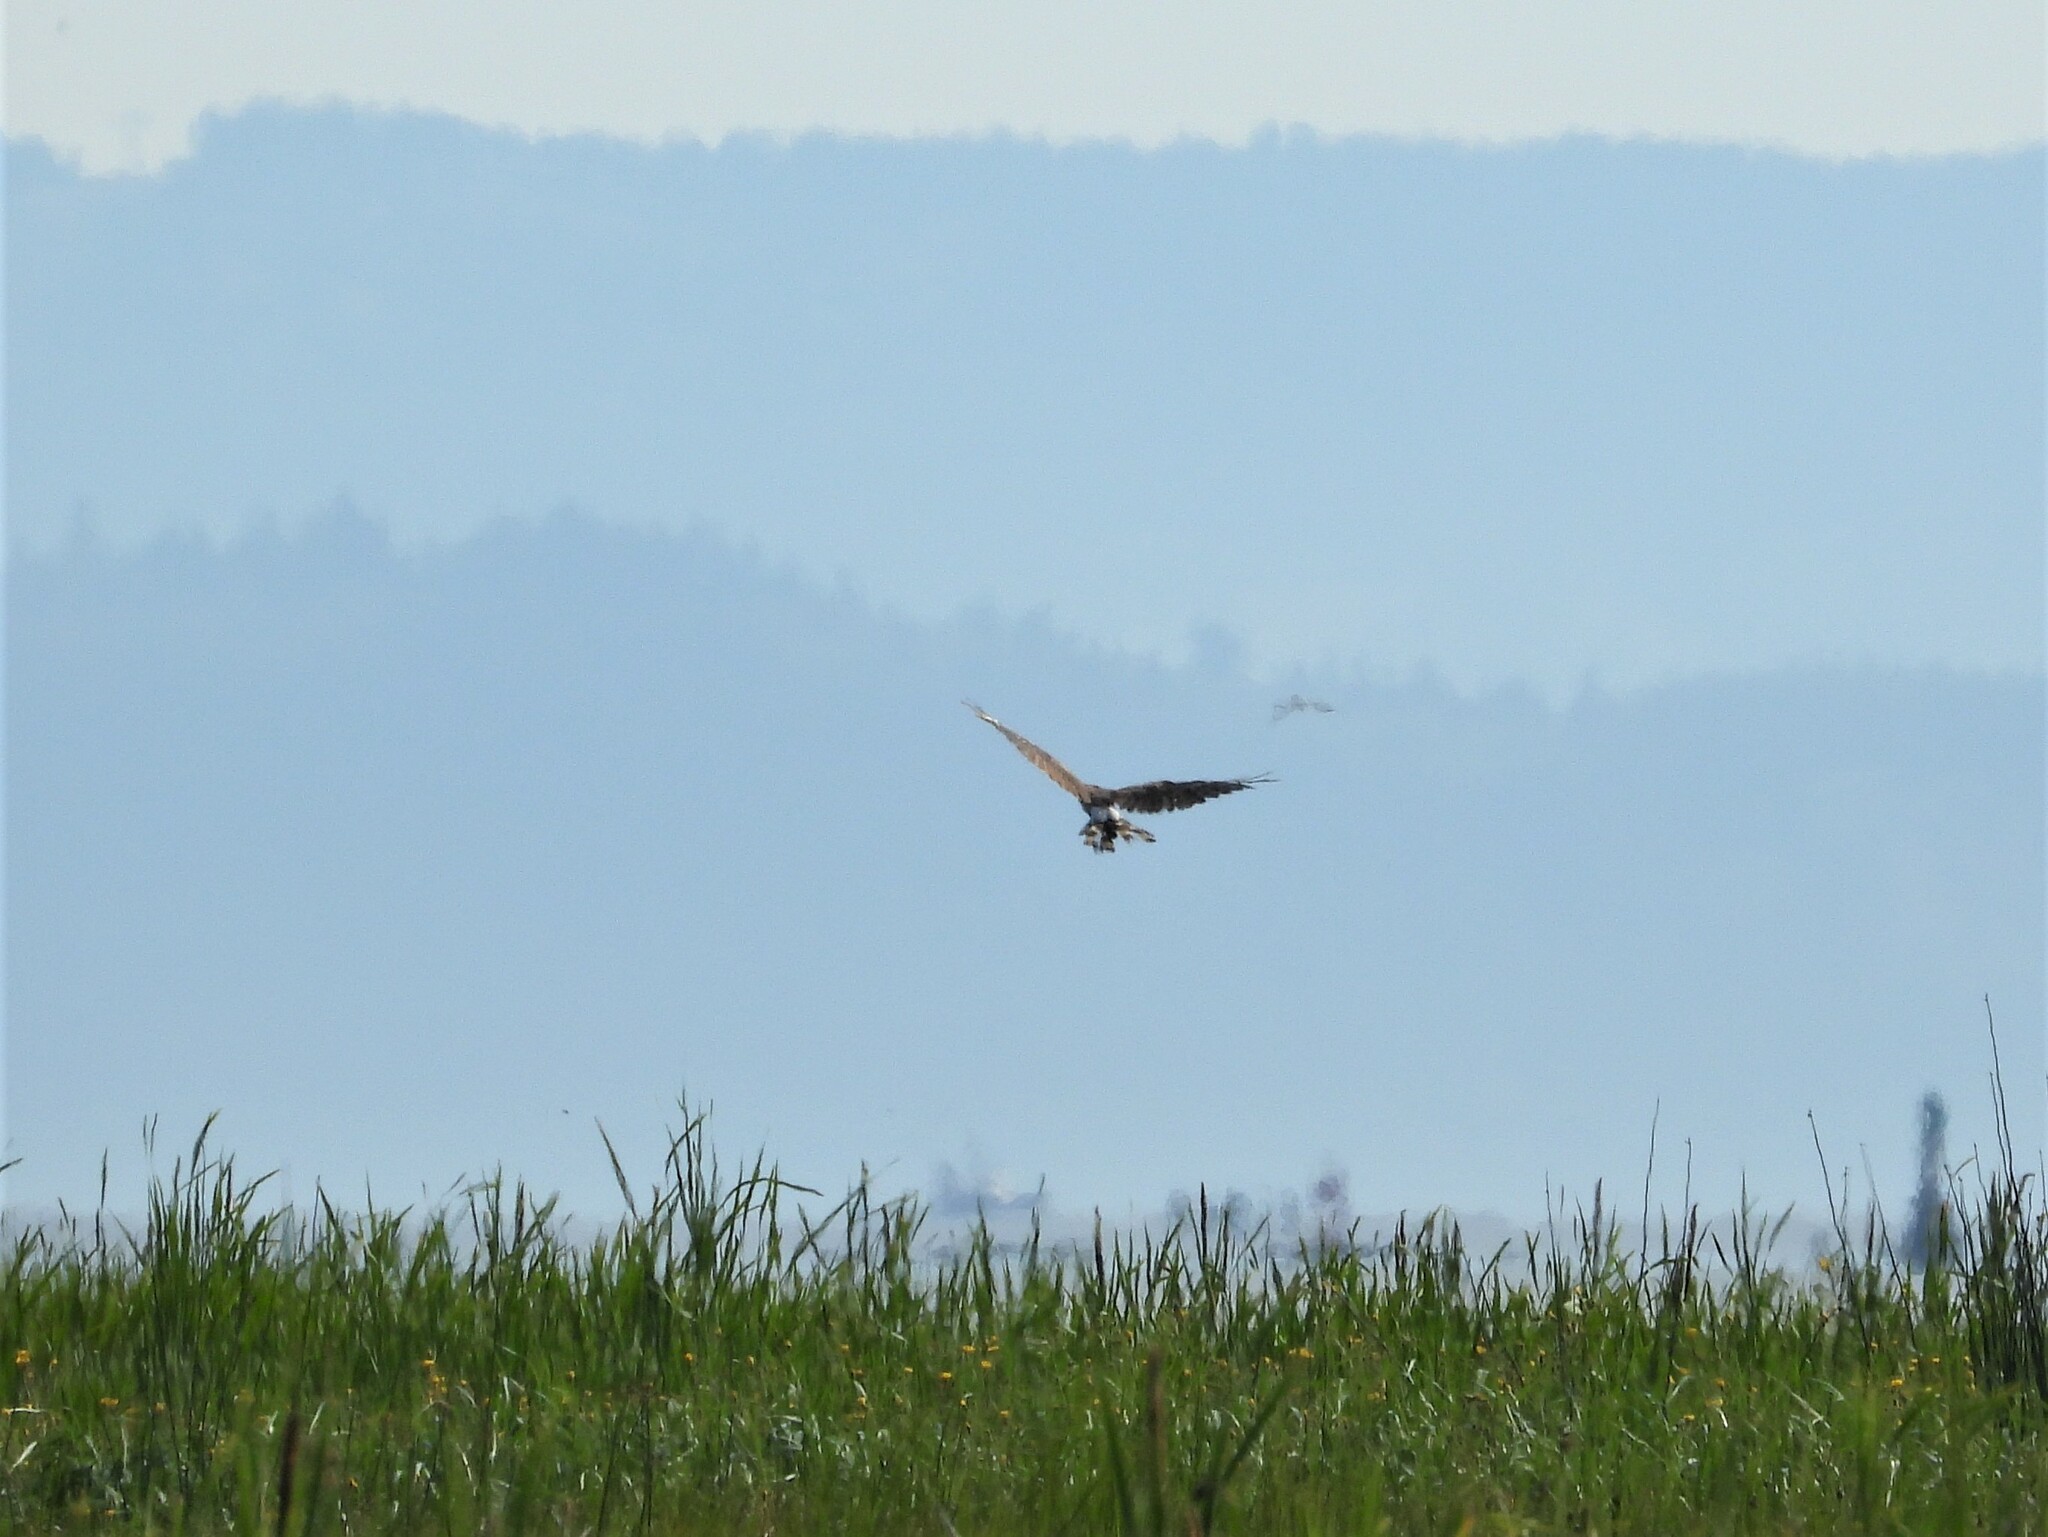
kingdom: Animalia
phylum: Chordata
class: Aves
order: Accipitriformes
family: Accipitridae
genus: Circus
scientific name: Circus cyaneus
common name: Hen harrier
